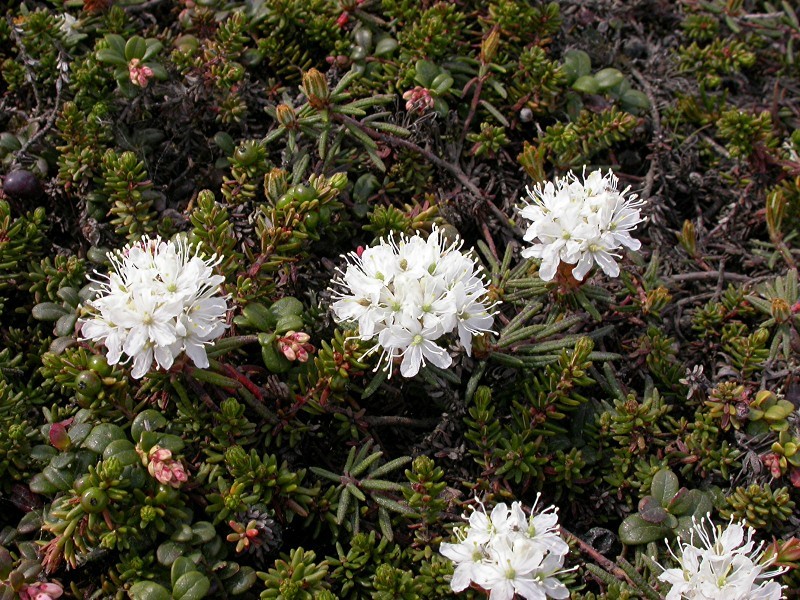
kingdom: Plantae
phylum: Tracheophyta
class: Magnoliopsida
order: Ericales
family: Ericaceae
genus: Rhododendron
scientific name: Rhododendron tomentosum
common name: Marsh labrador tea
